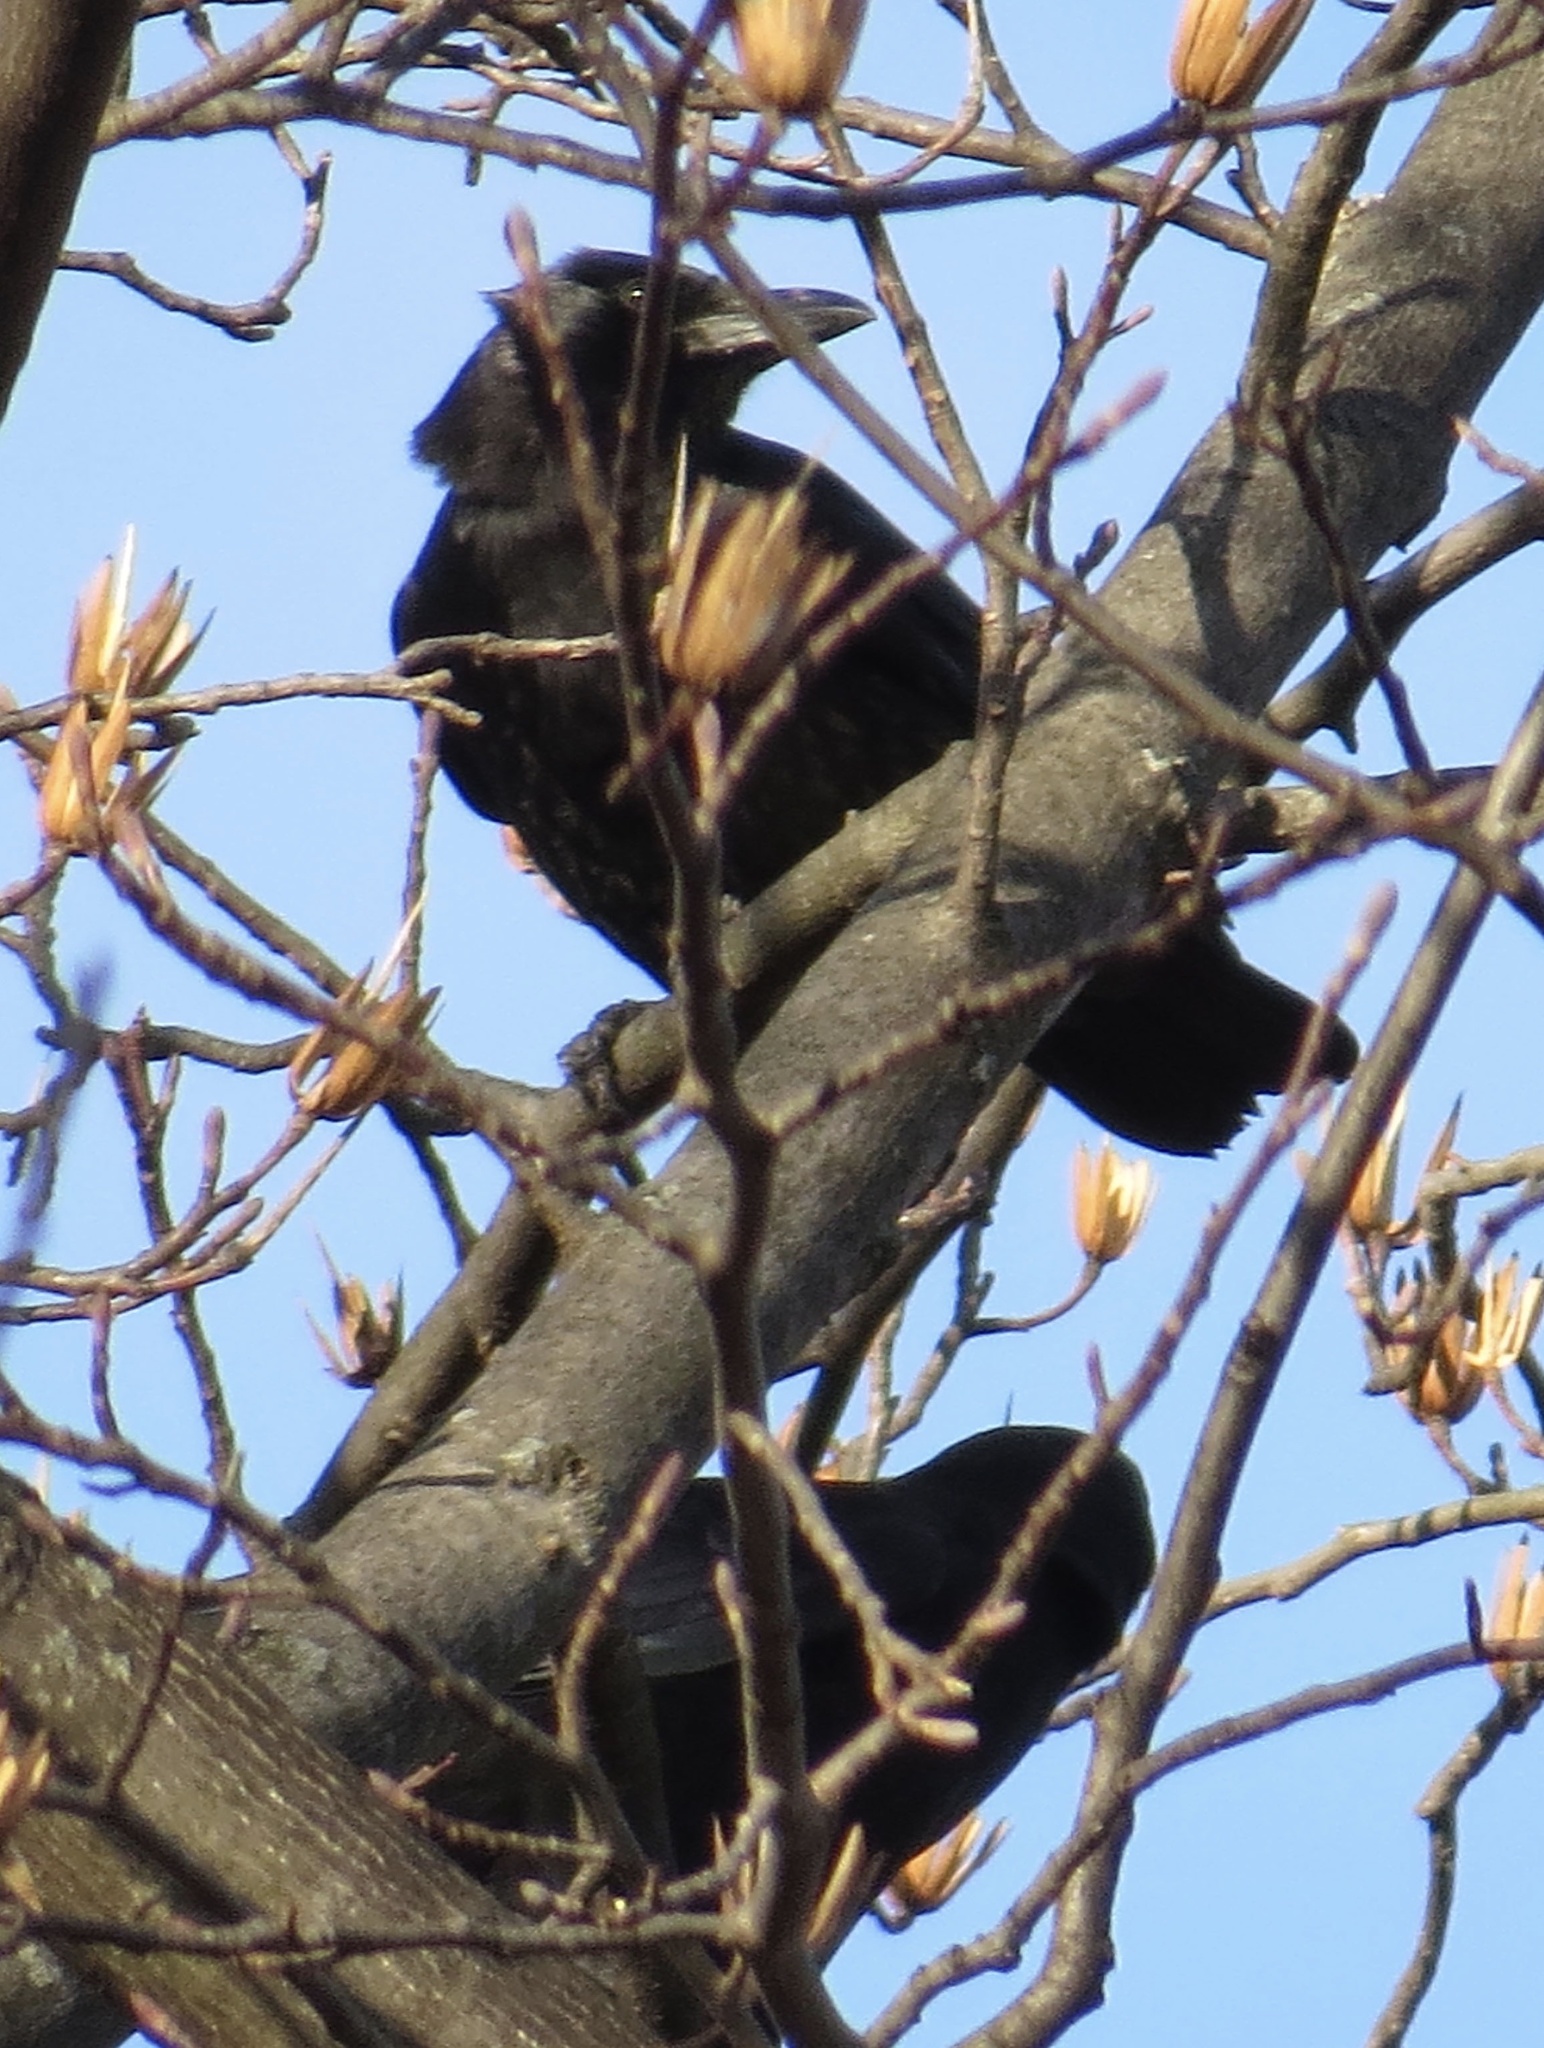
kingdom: Animalia
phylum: Chordata
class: Aves
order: Passeriformes
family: Corvidae
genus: Corvus
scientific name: Corvus brachyrhynchos
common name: American crow
